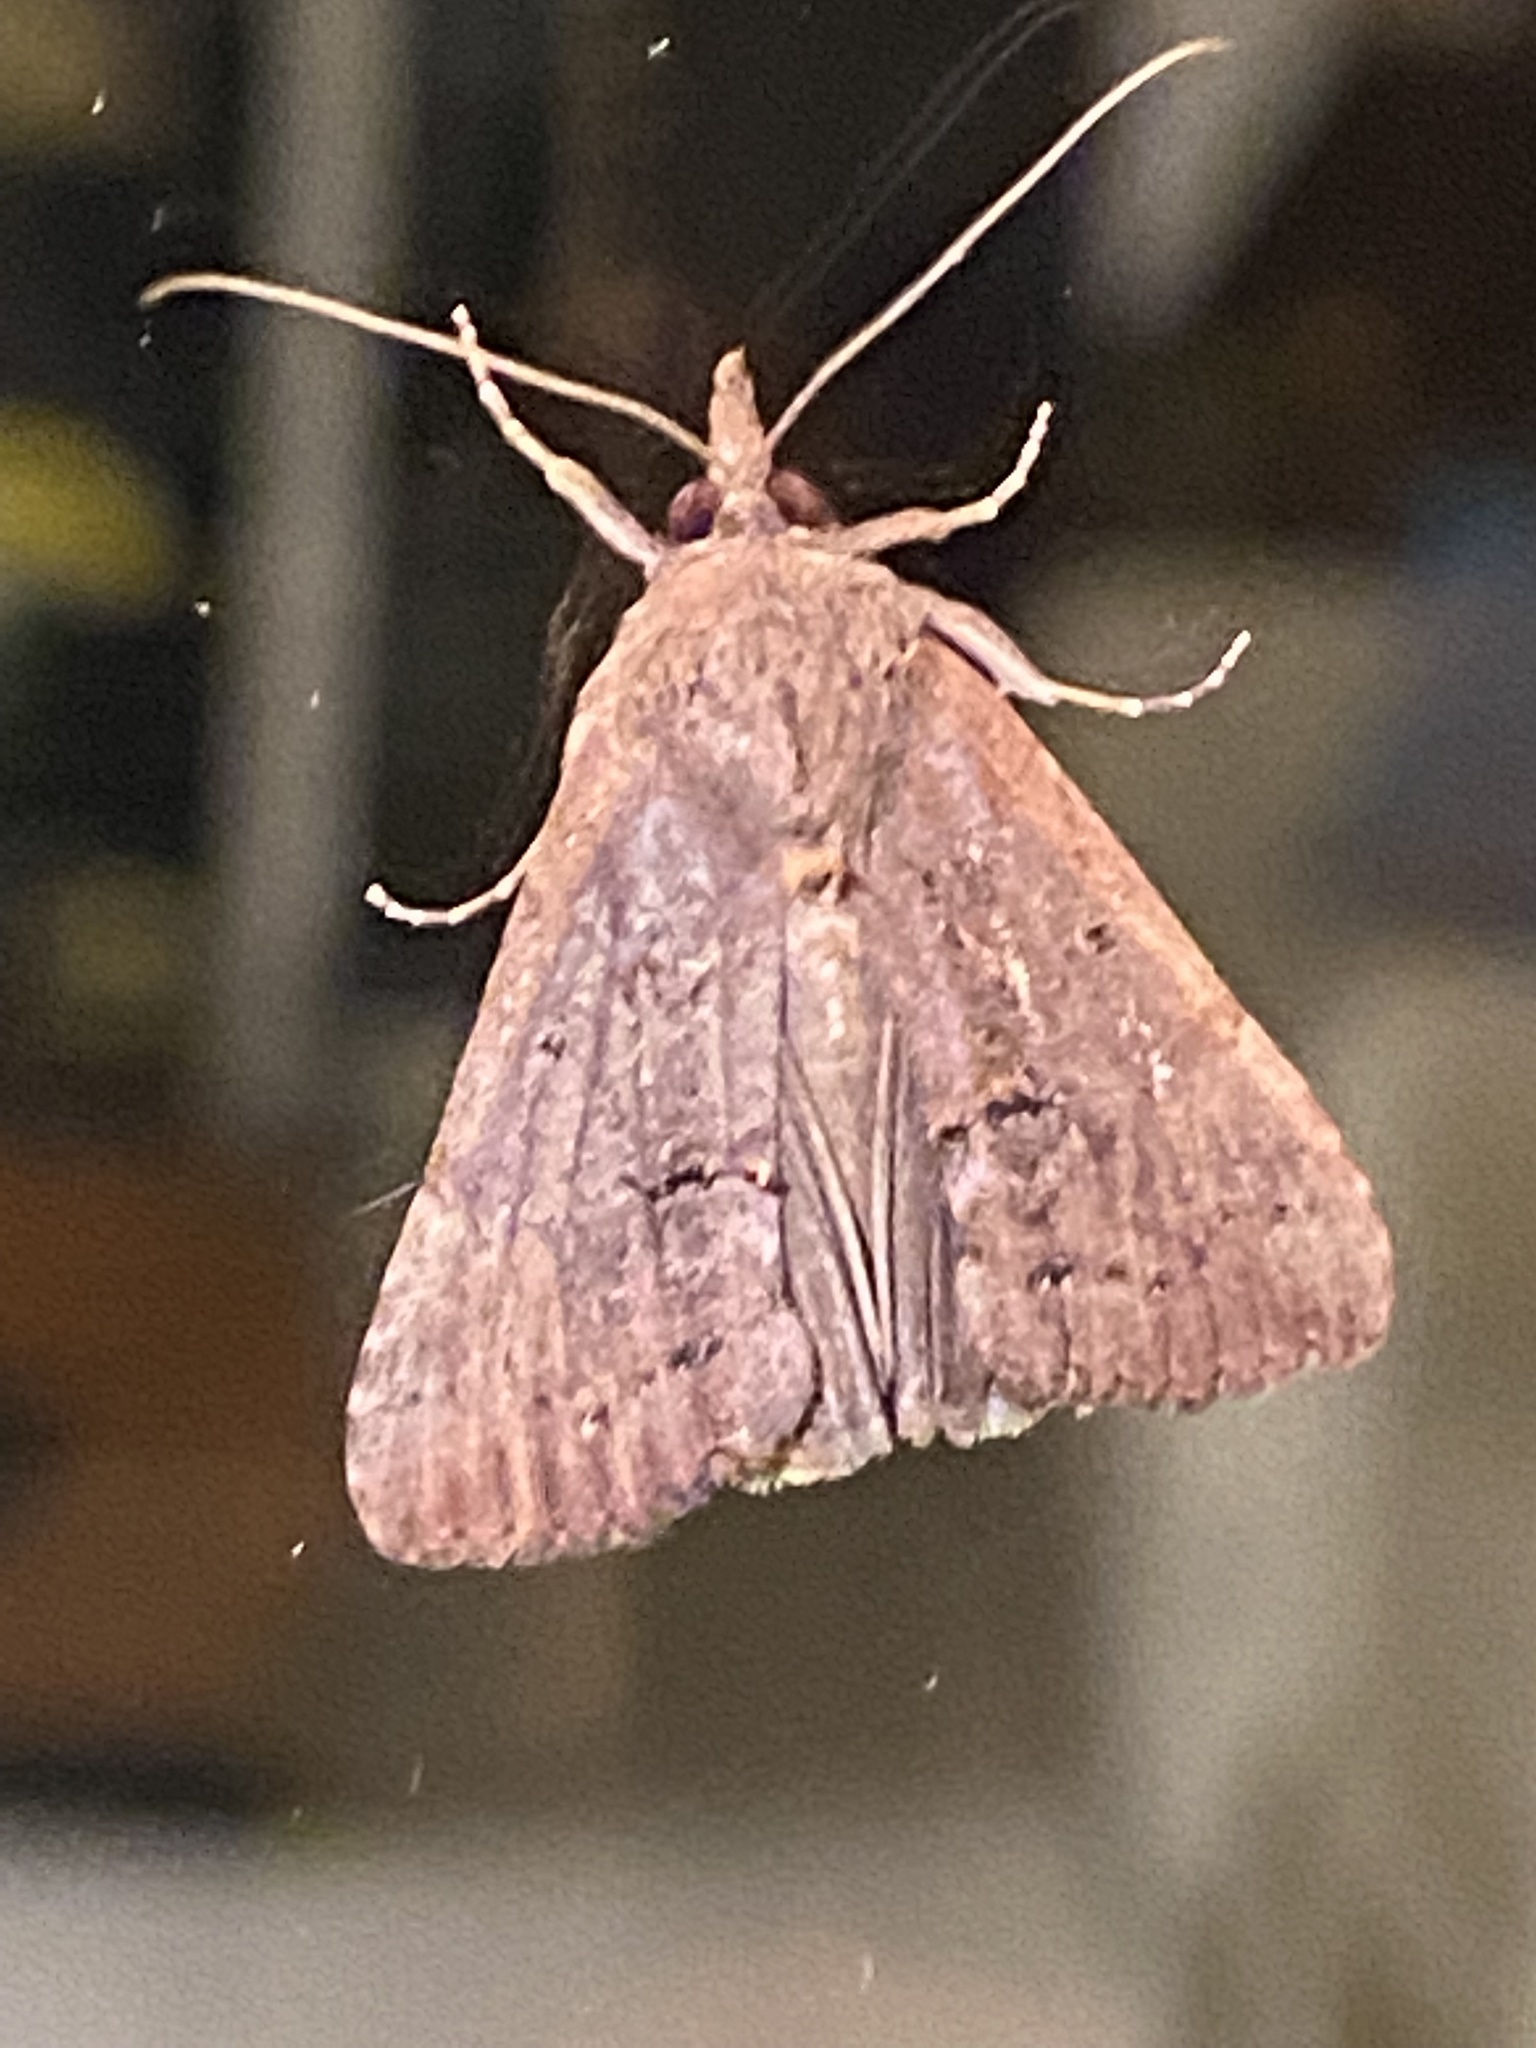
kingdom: Animalia
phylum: Arthropoda
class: Insecta
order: Lepidoptera
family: Erebidae
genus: Hypena
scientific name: Hypena scabra
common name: Green cloverworm
